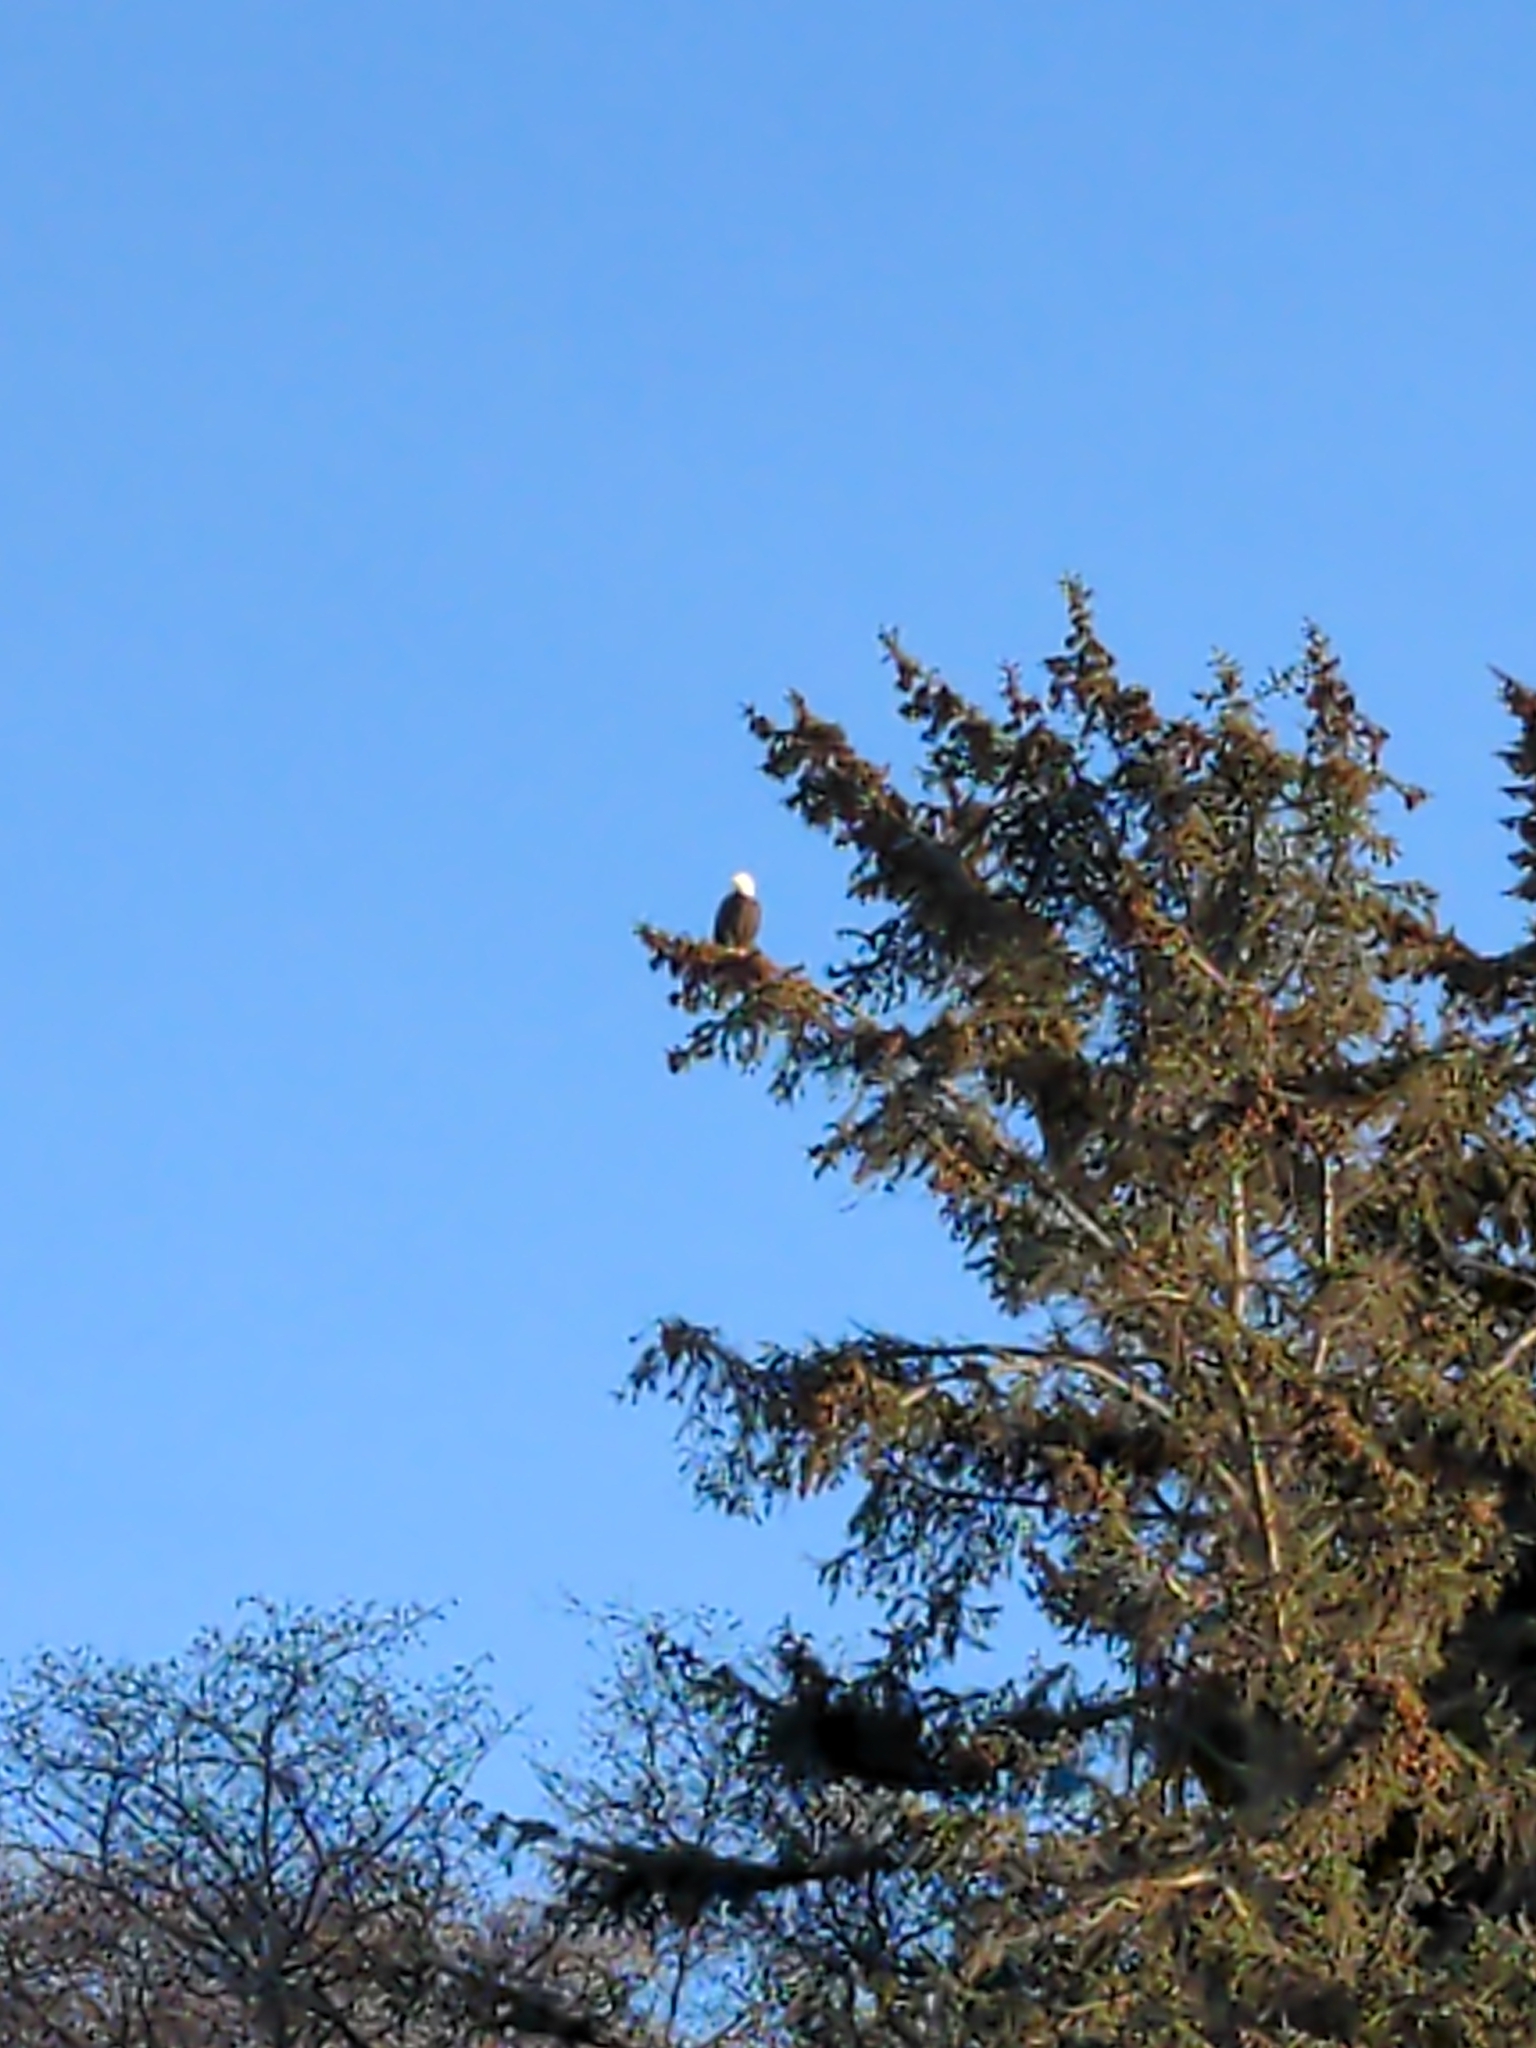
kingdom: Animalia
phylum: Chordata
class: Aves
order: Accipitriformes
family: Accipitridae
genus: Haliaeetus
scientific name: Haliaeetus leucocephalus
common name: Bald eagle
